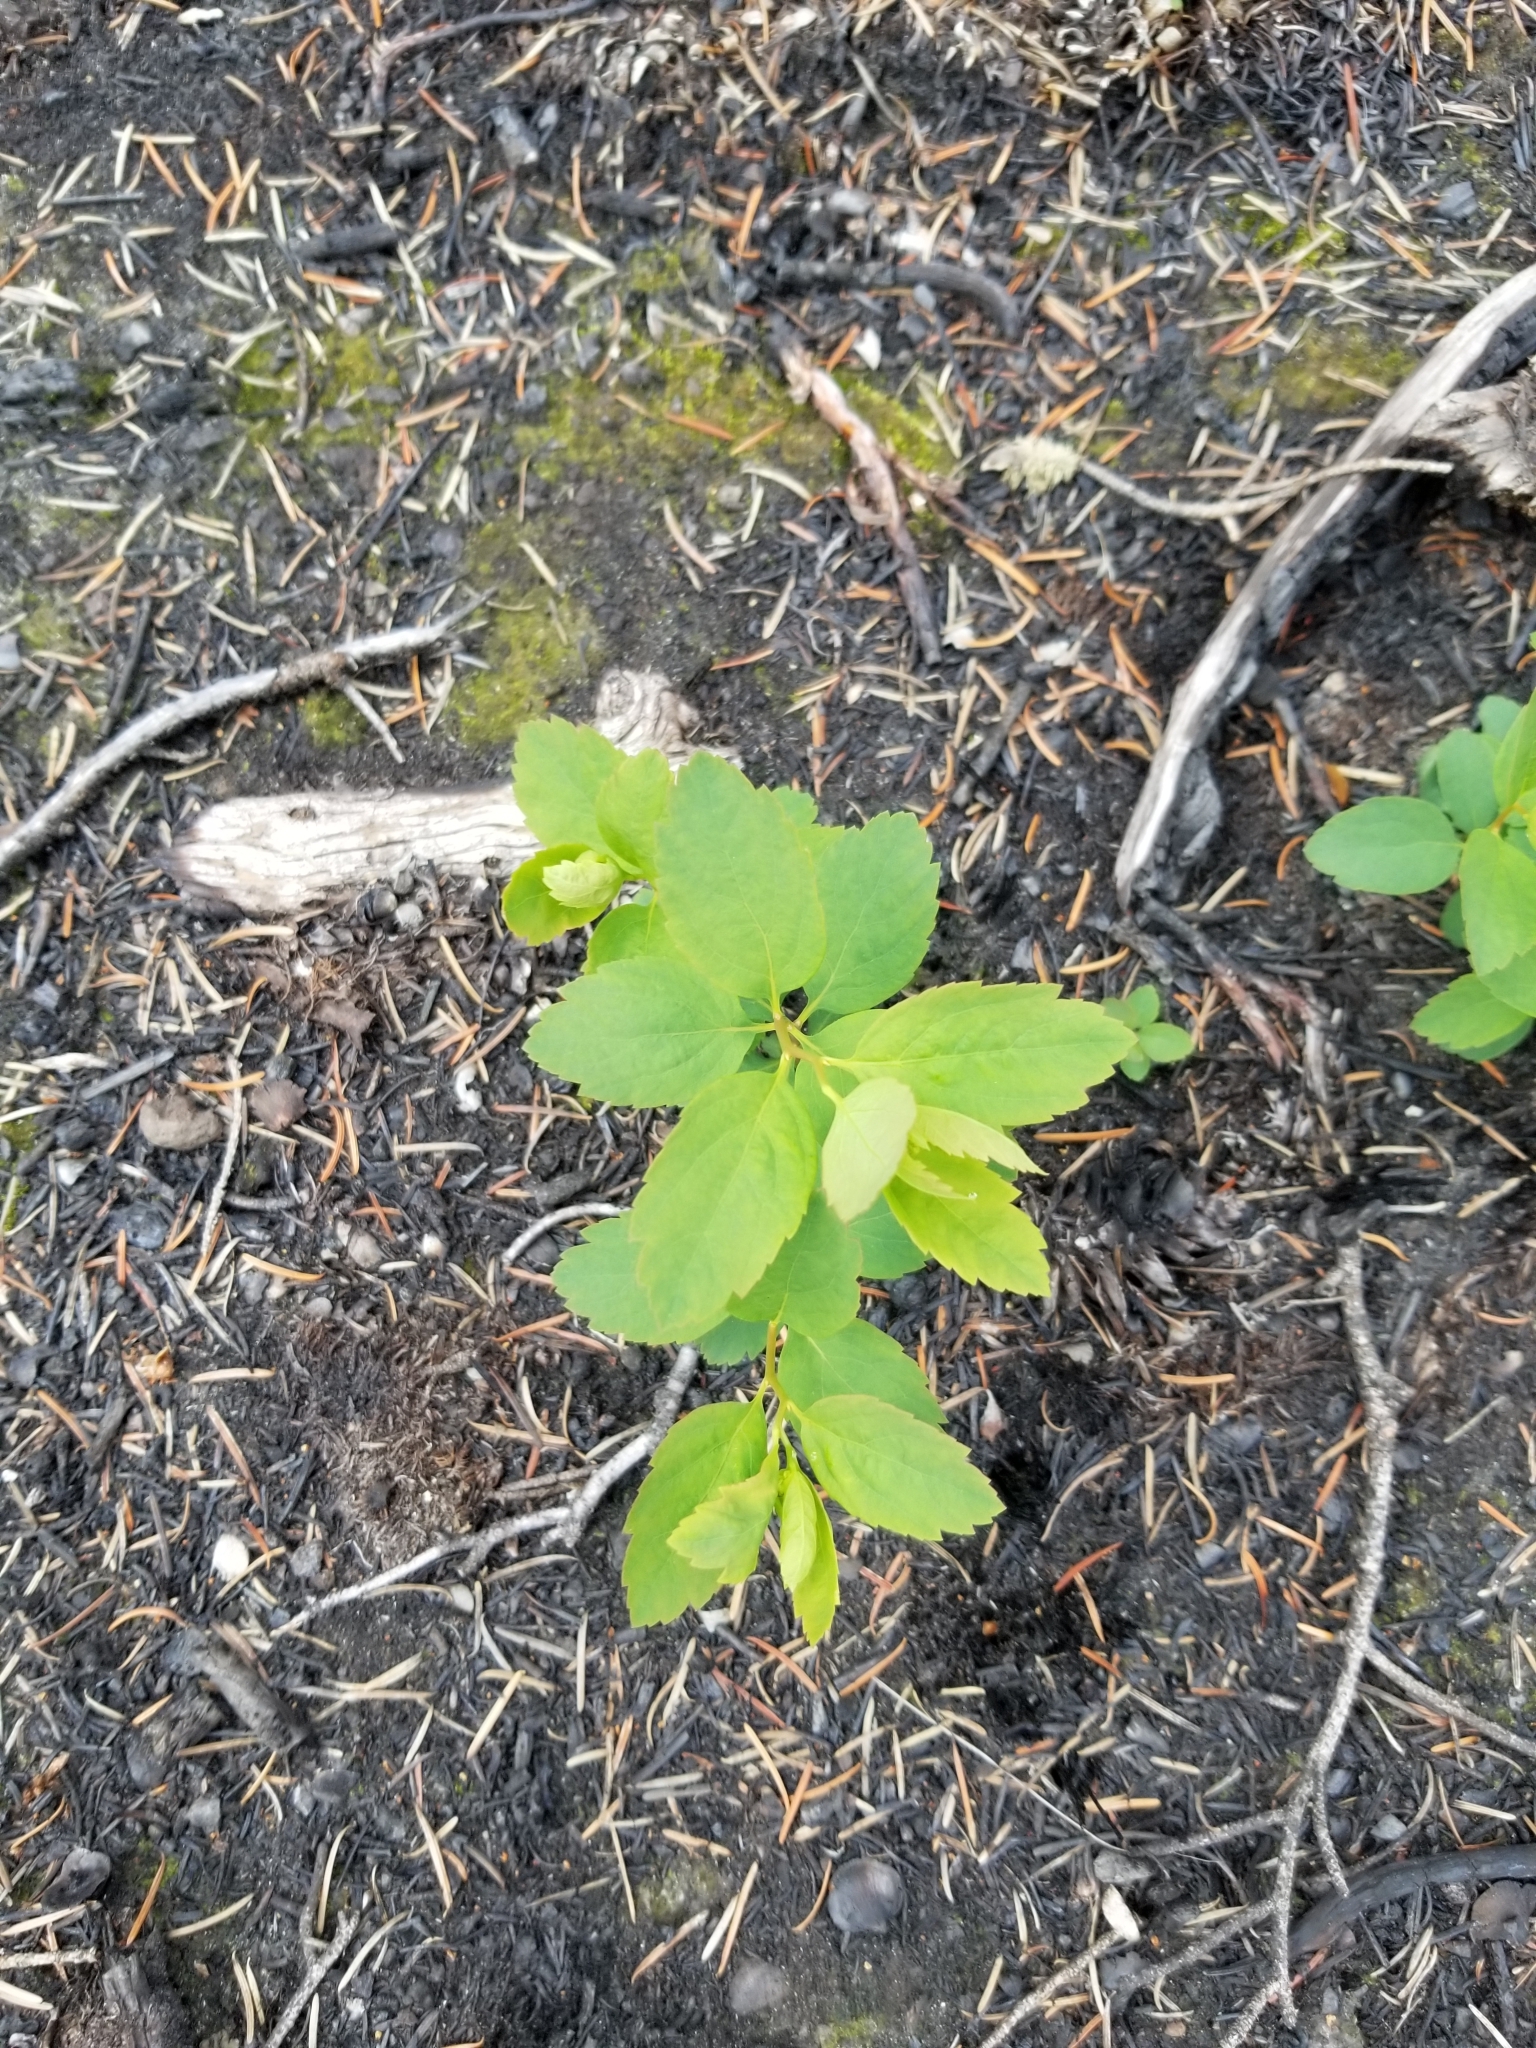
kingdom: Plantae
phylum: Tracheophyta
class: Magnoliopsida
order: Rosales
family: Rosaceae
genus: Spiraea
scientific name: Spiraea lucida
